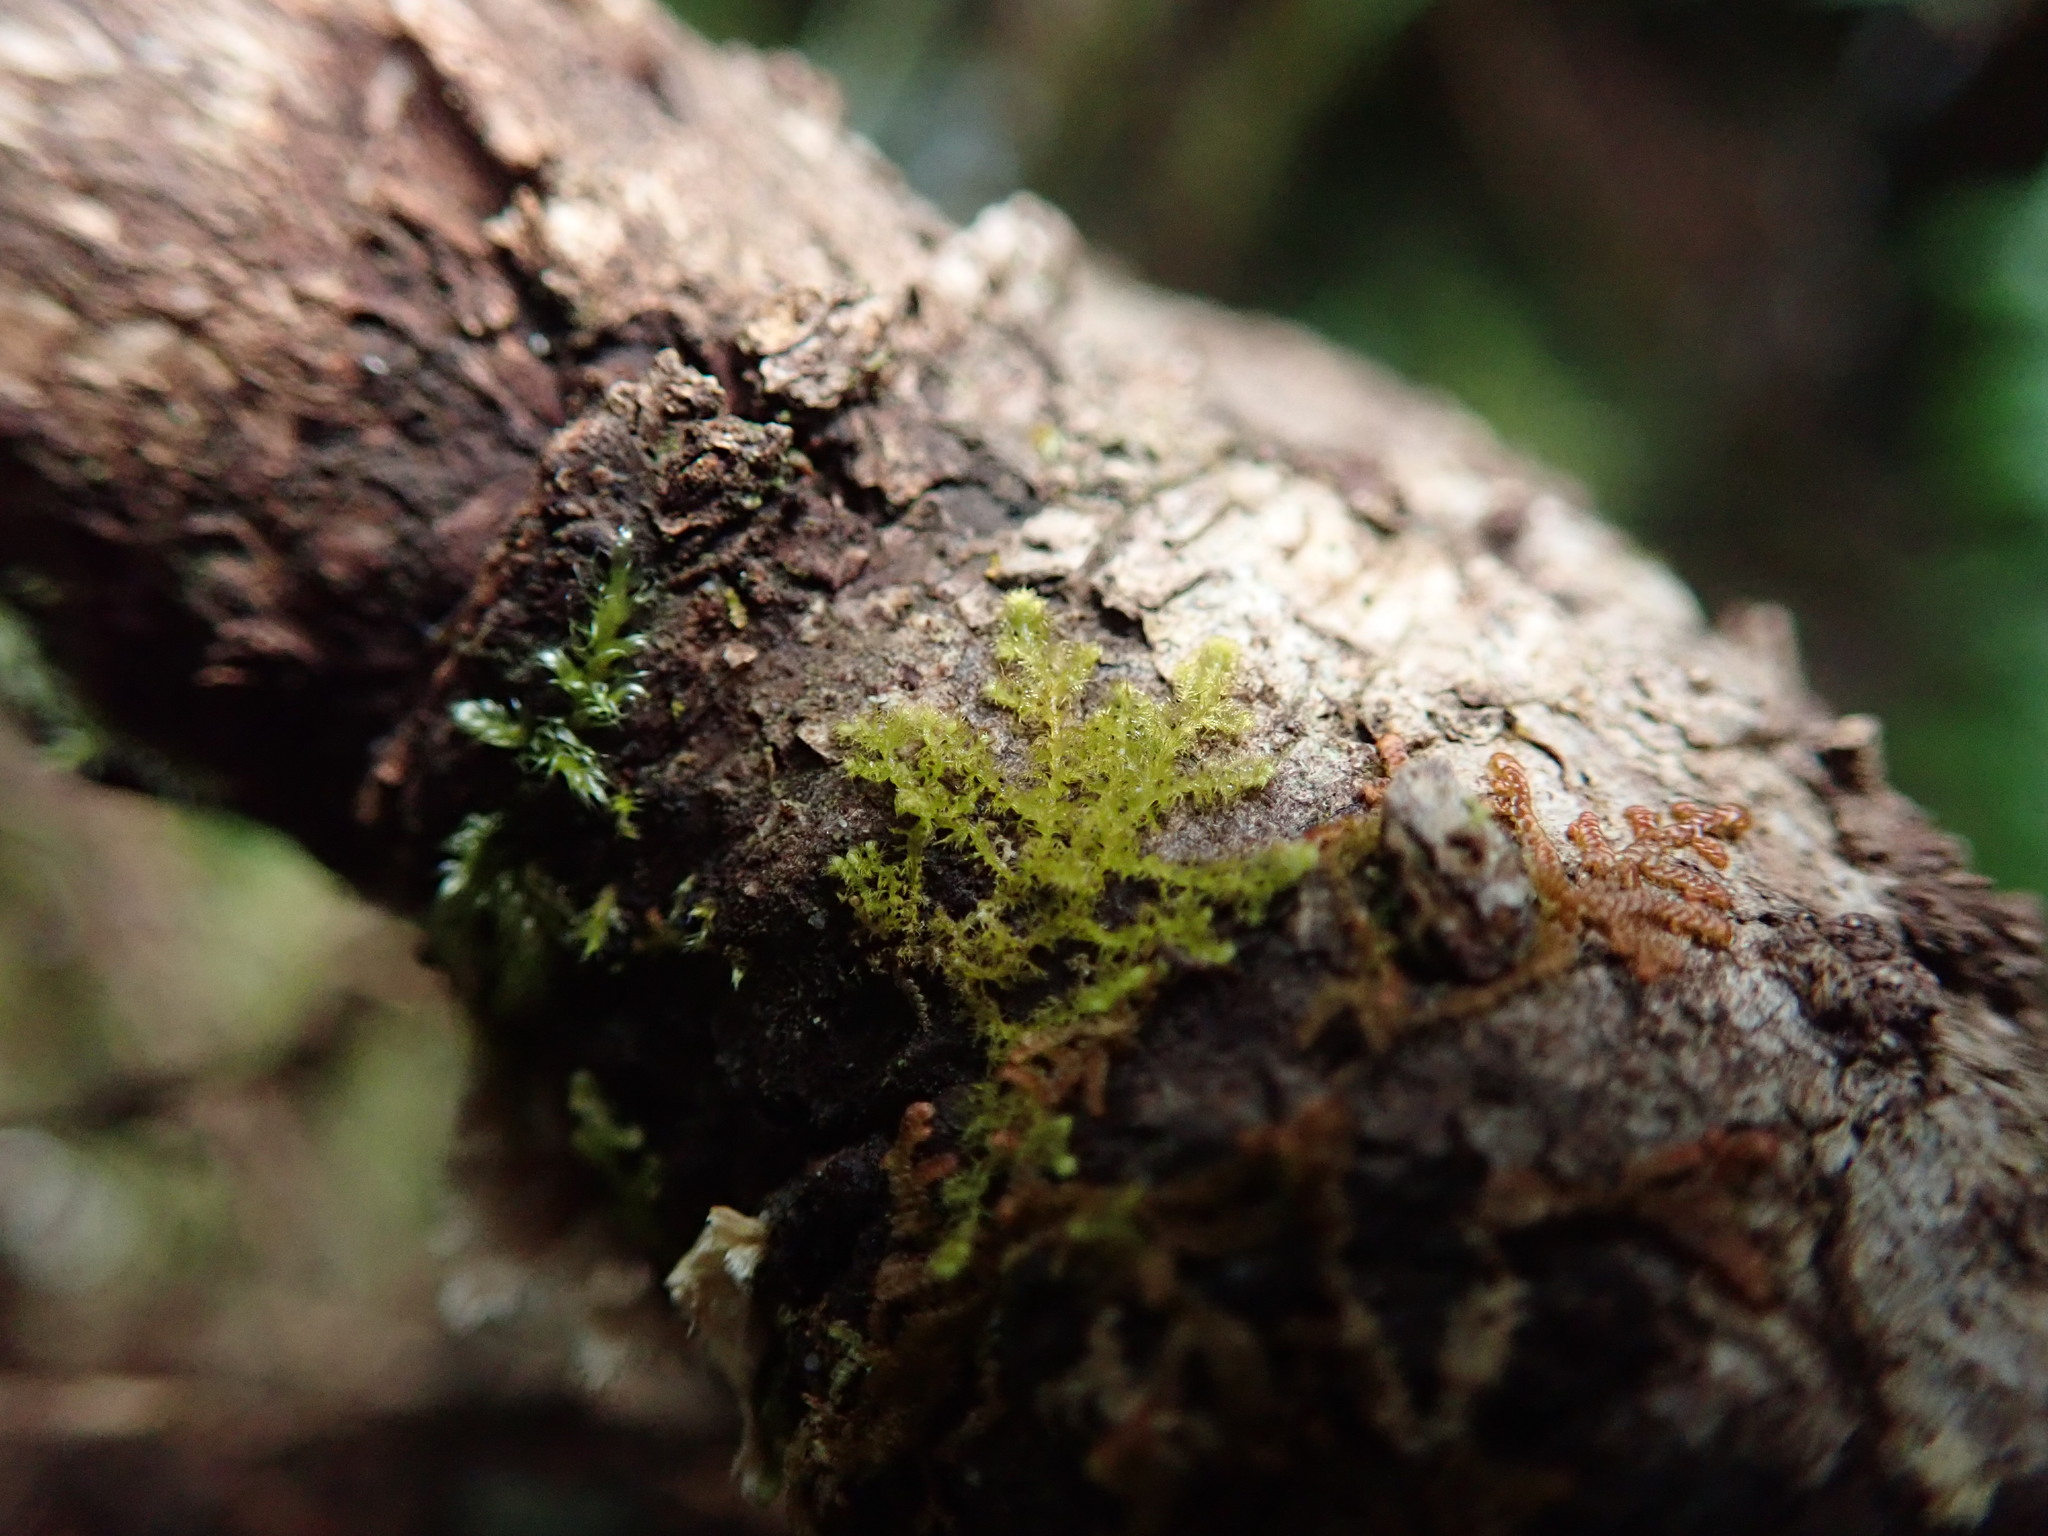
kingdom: Plantae
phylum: Marchantiophyta
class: Jungermanniopsida
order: Ptilidiales
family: Ptilidiaceae
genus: Ptilidium
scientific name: Ptilidium californicum
